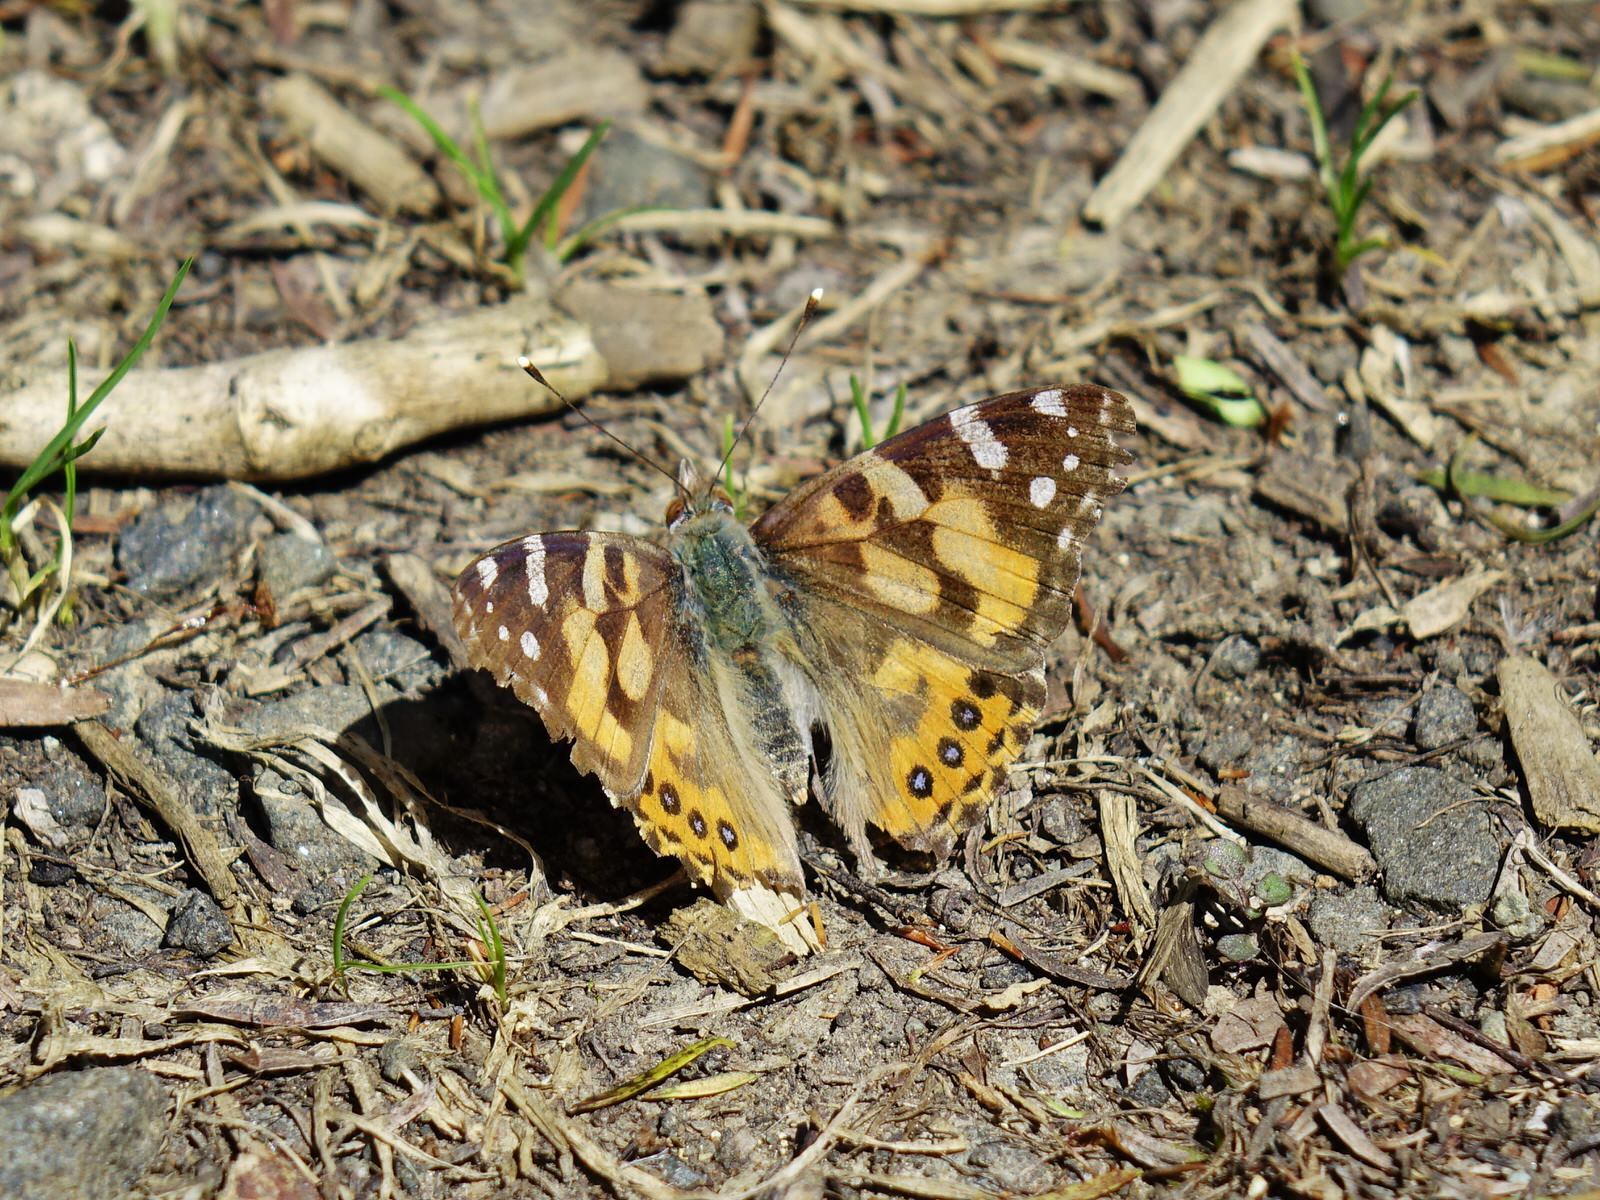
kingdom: Animalia
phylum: Arthropoda
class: Insecta
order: Lepidoptera
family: Nymphalidae
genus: Vanessa
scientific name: Vanessa kershawi
